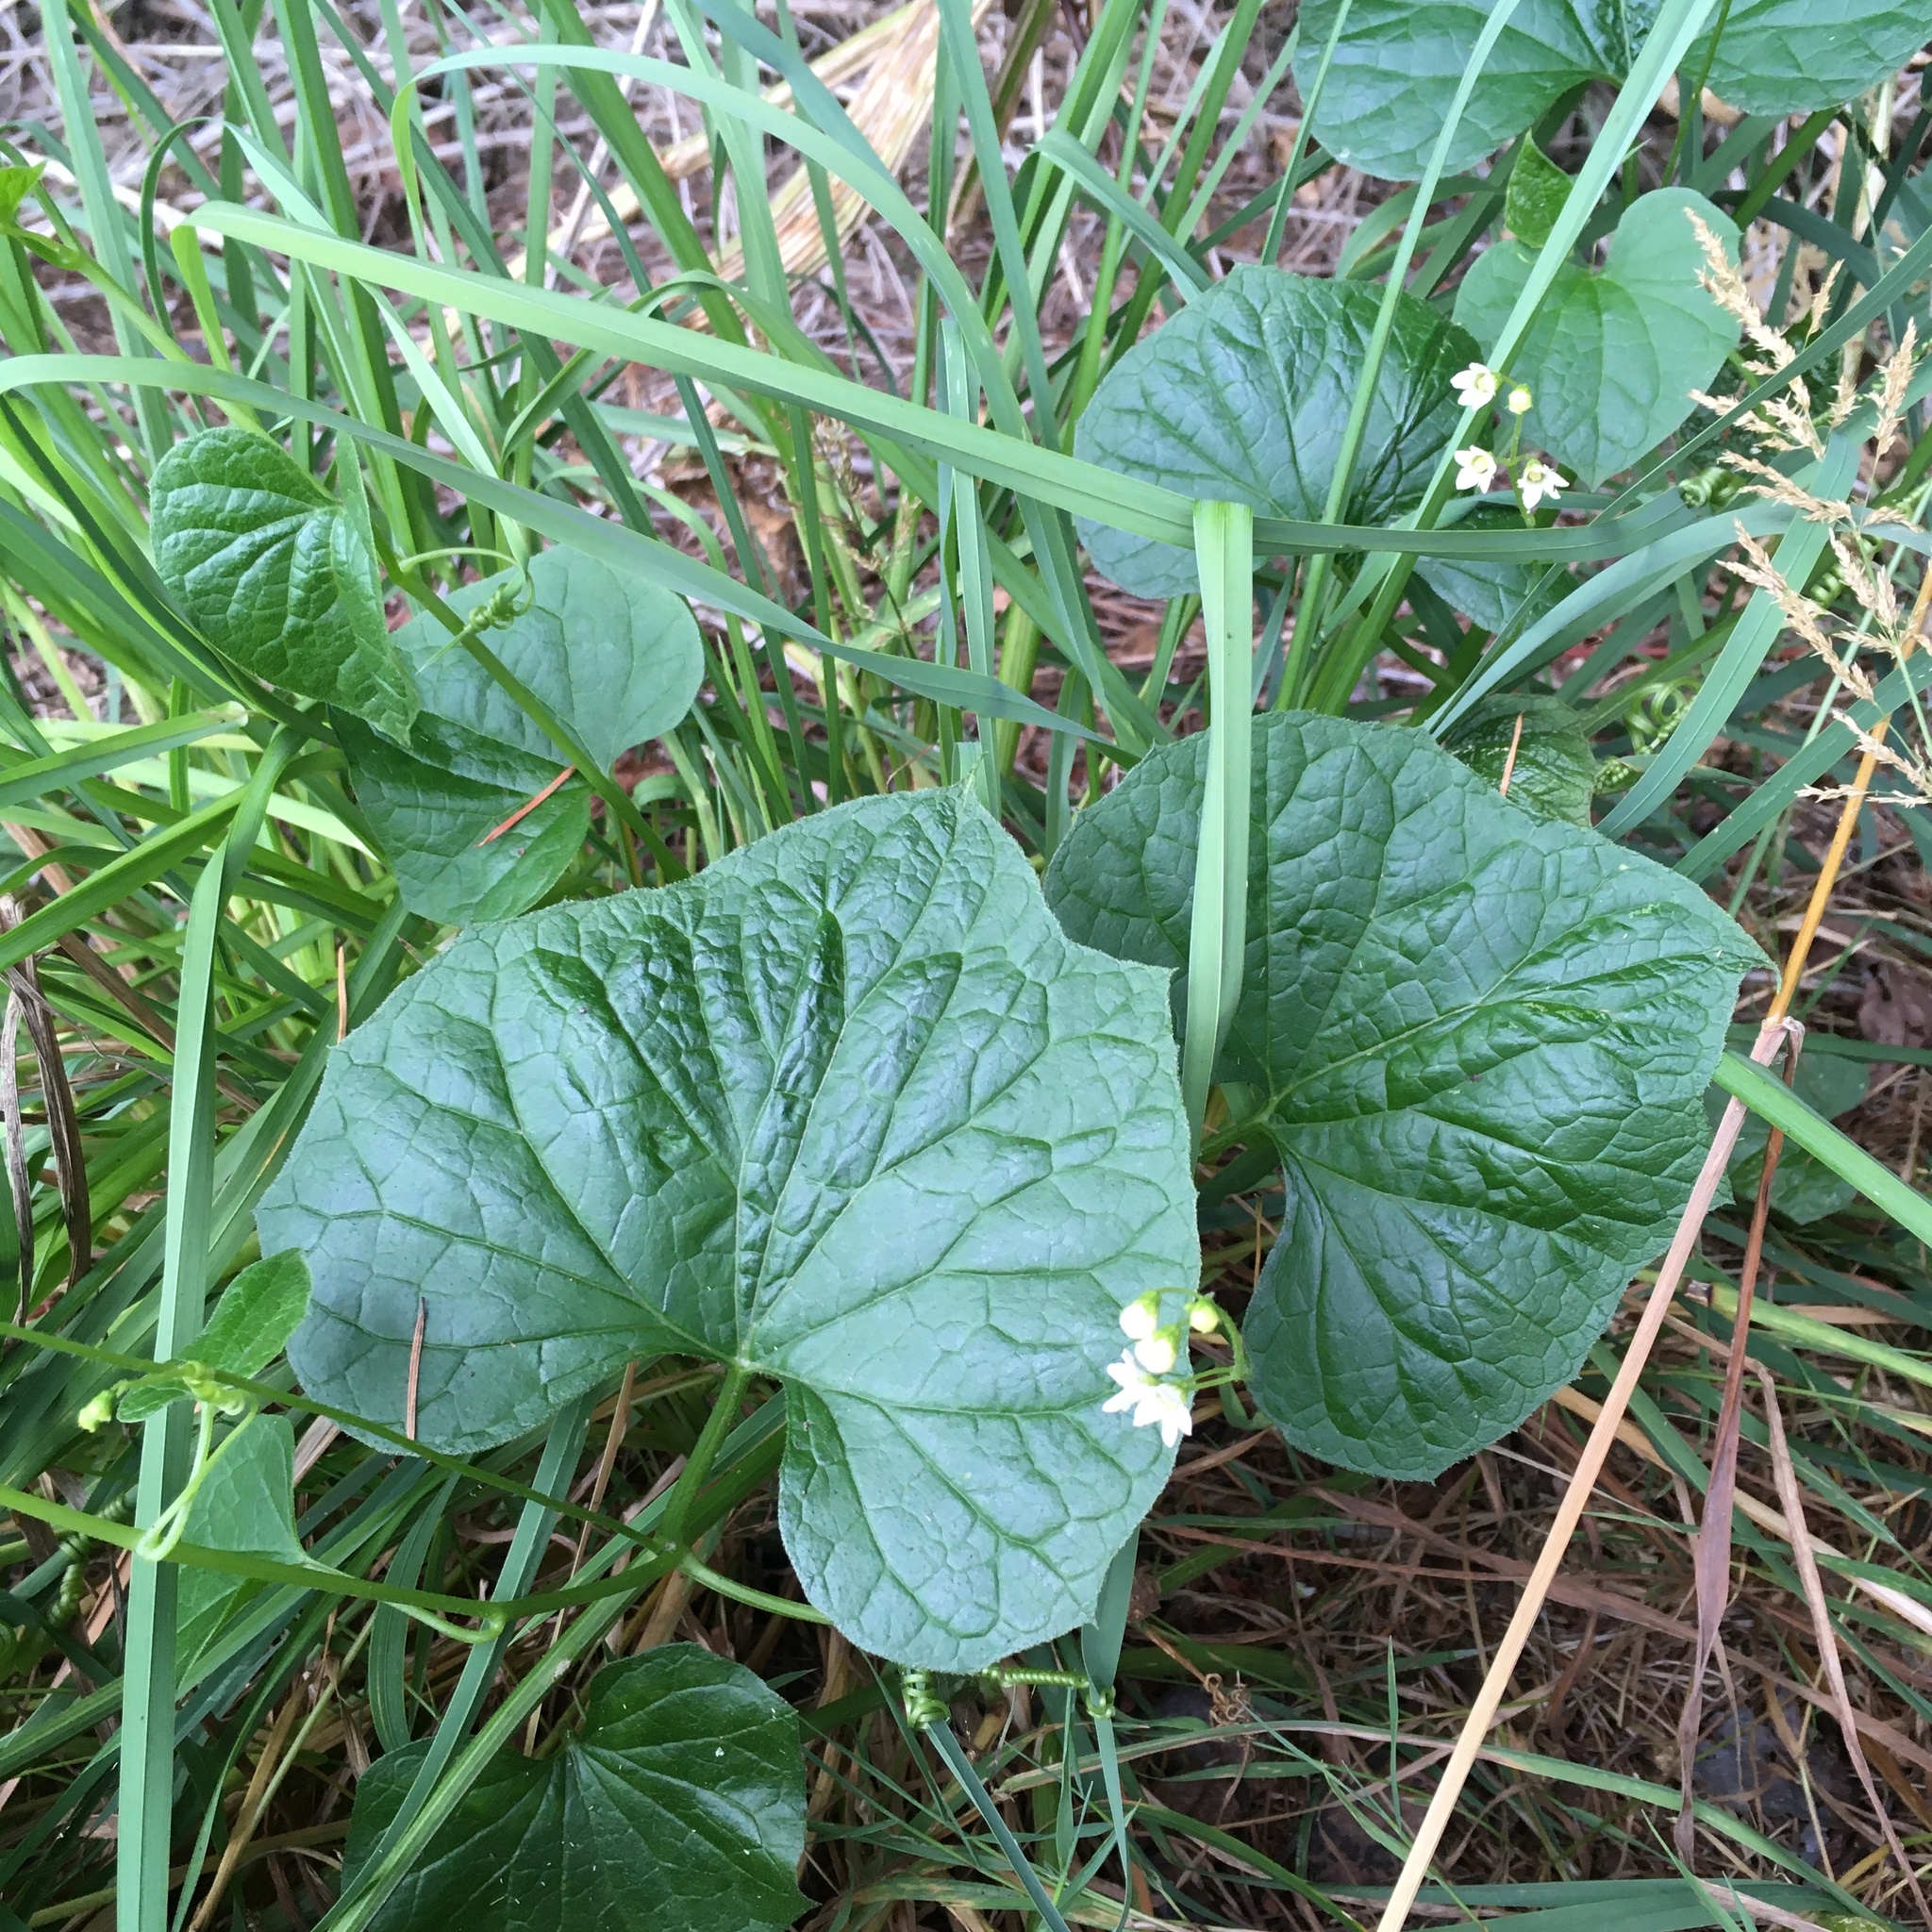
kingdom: Plantae
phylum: Tracheophyta
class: Magnoliopsida
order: Cucurbitales
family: Cucurbitaceae
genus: Marah
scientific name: Marah oregana
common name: Coastal manroot
